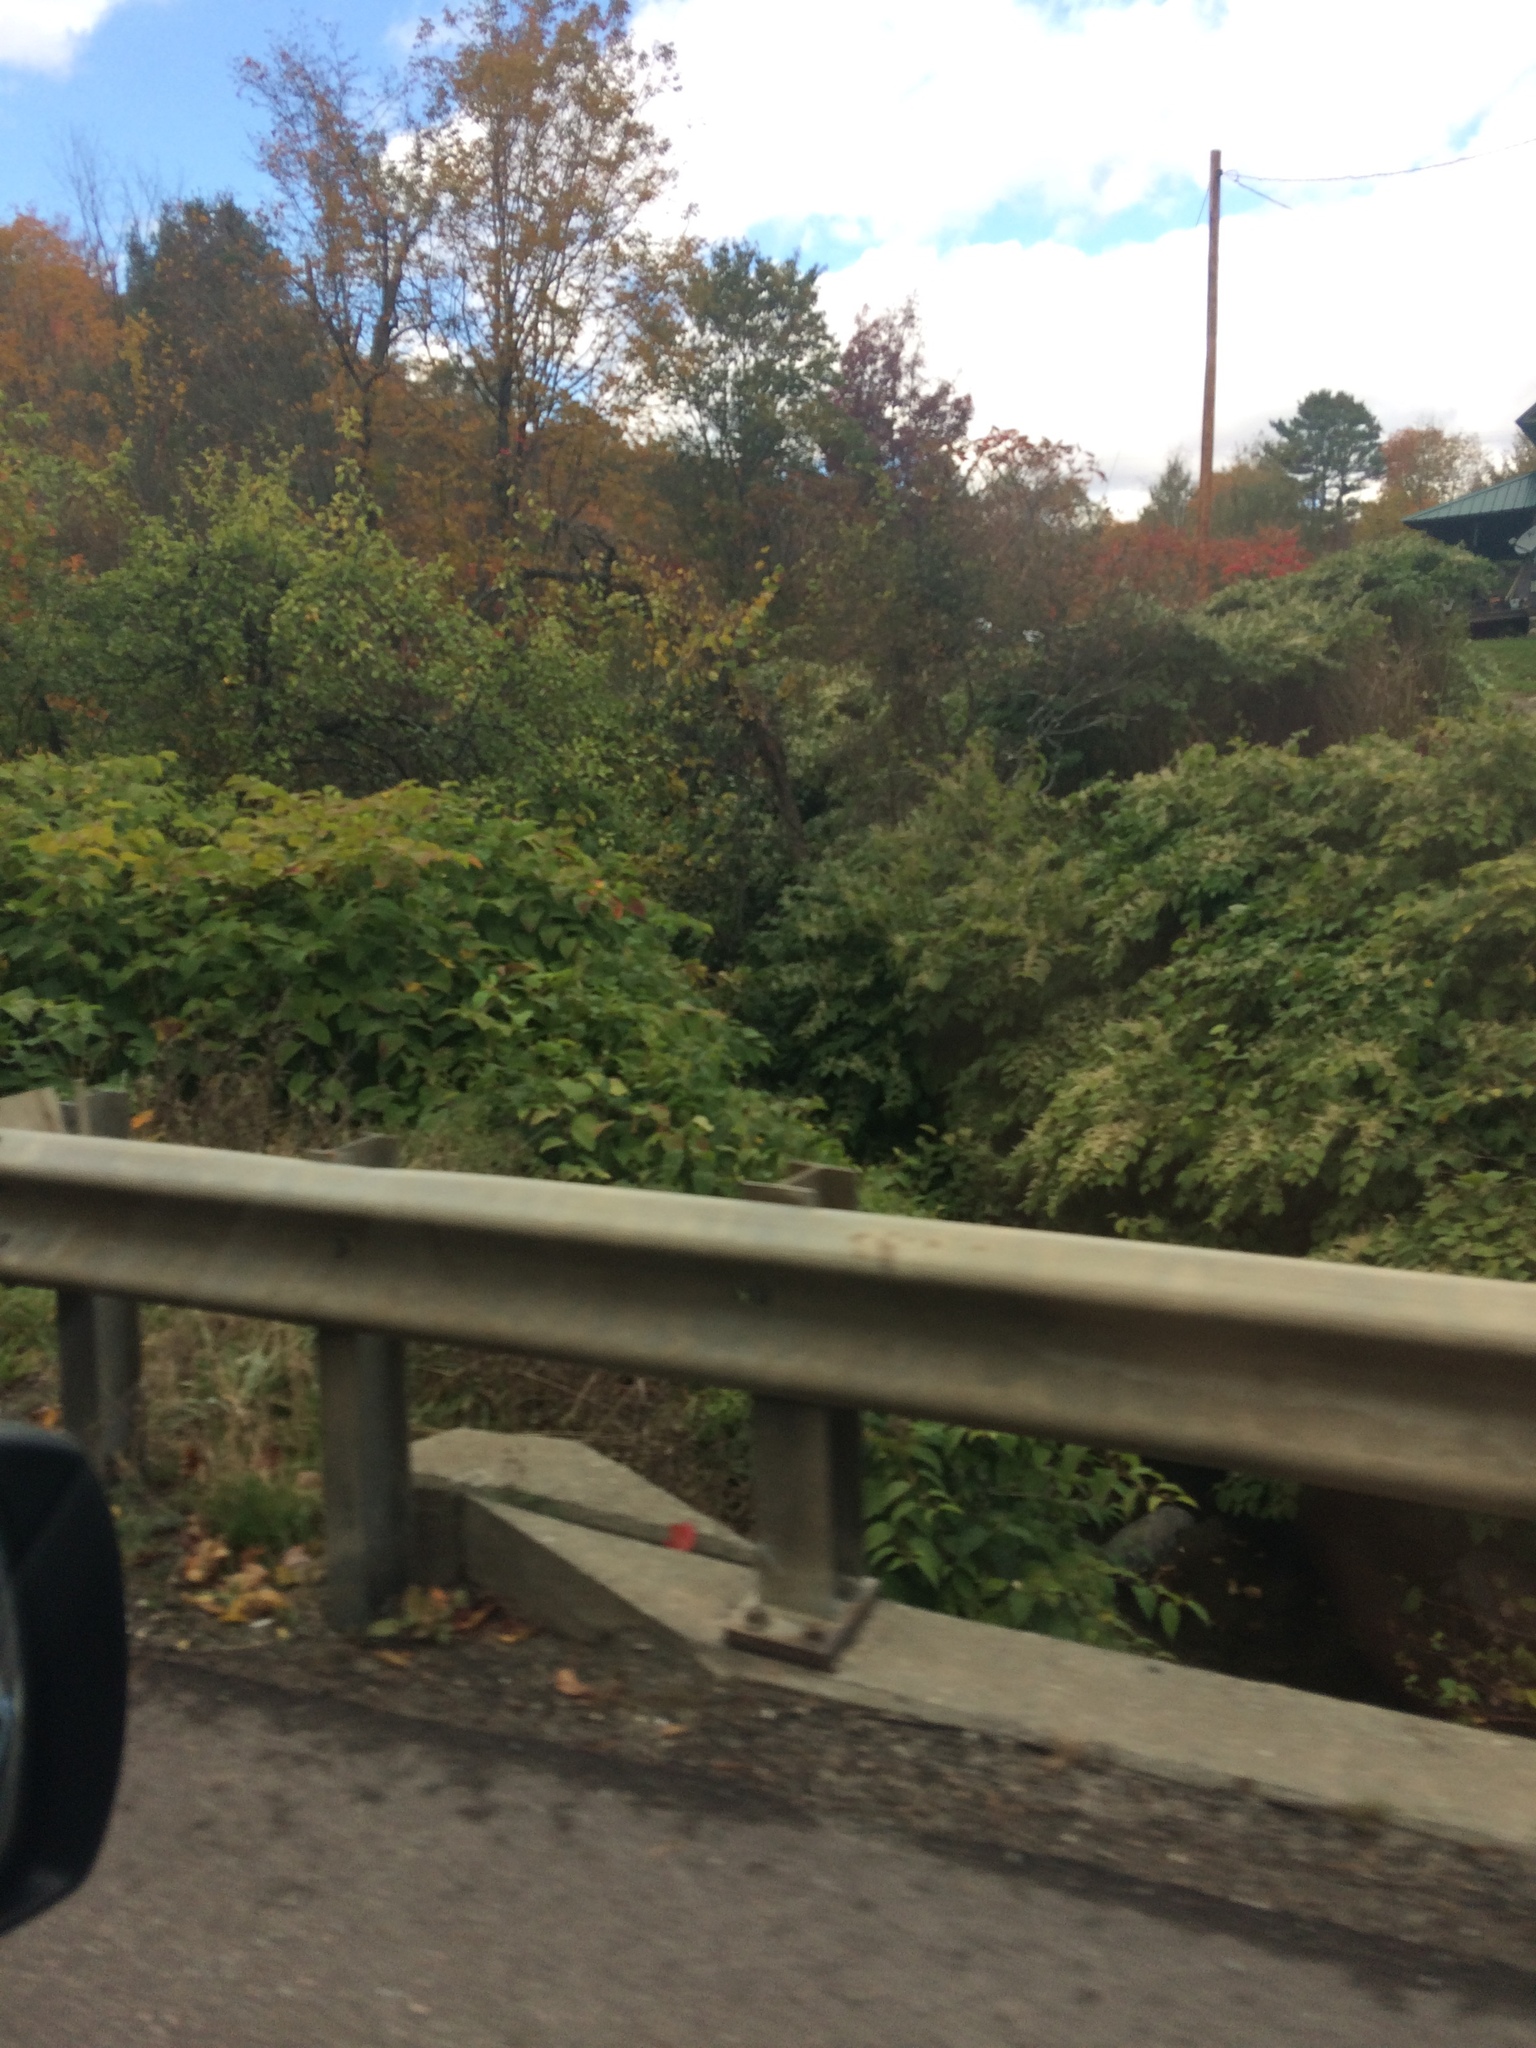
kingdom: Plantae
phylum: Tracheophyta
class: Magnoliopsida
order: Caryophyllales
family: Polygonaceae
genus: Reynoutria
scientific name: Reynoutria japonica
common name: Japanese knotweed
